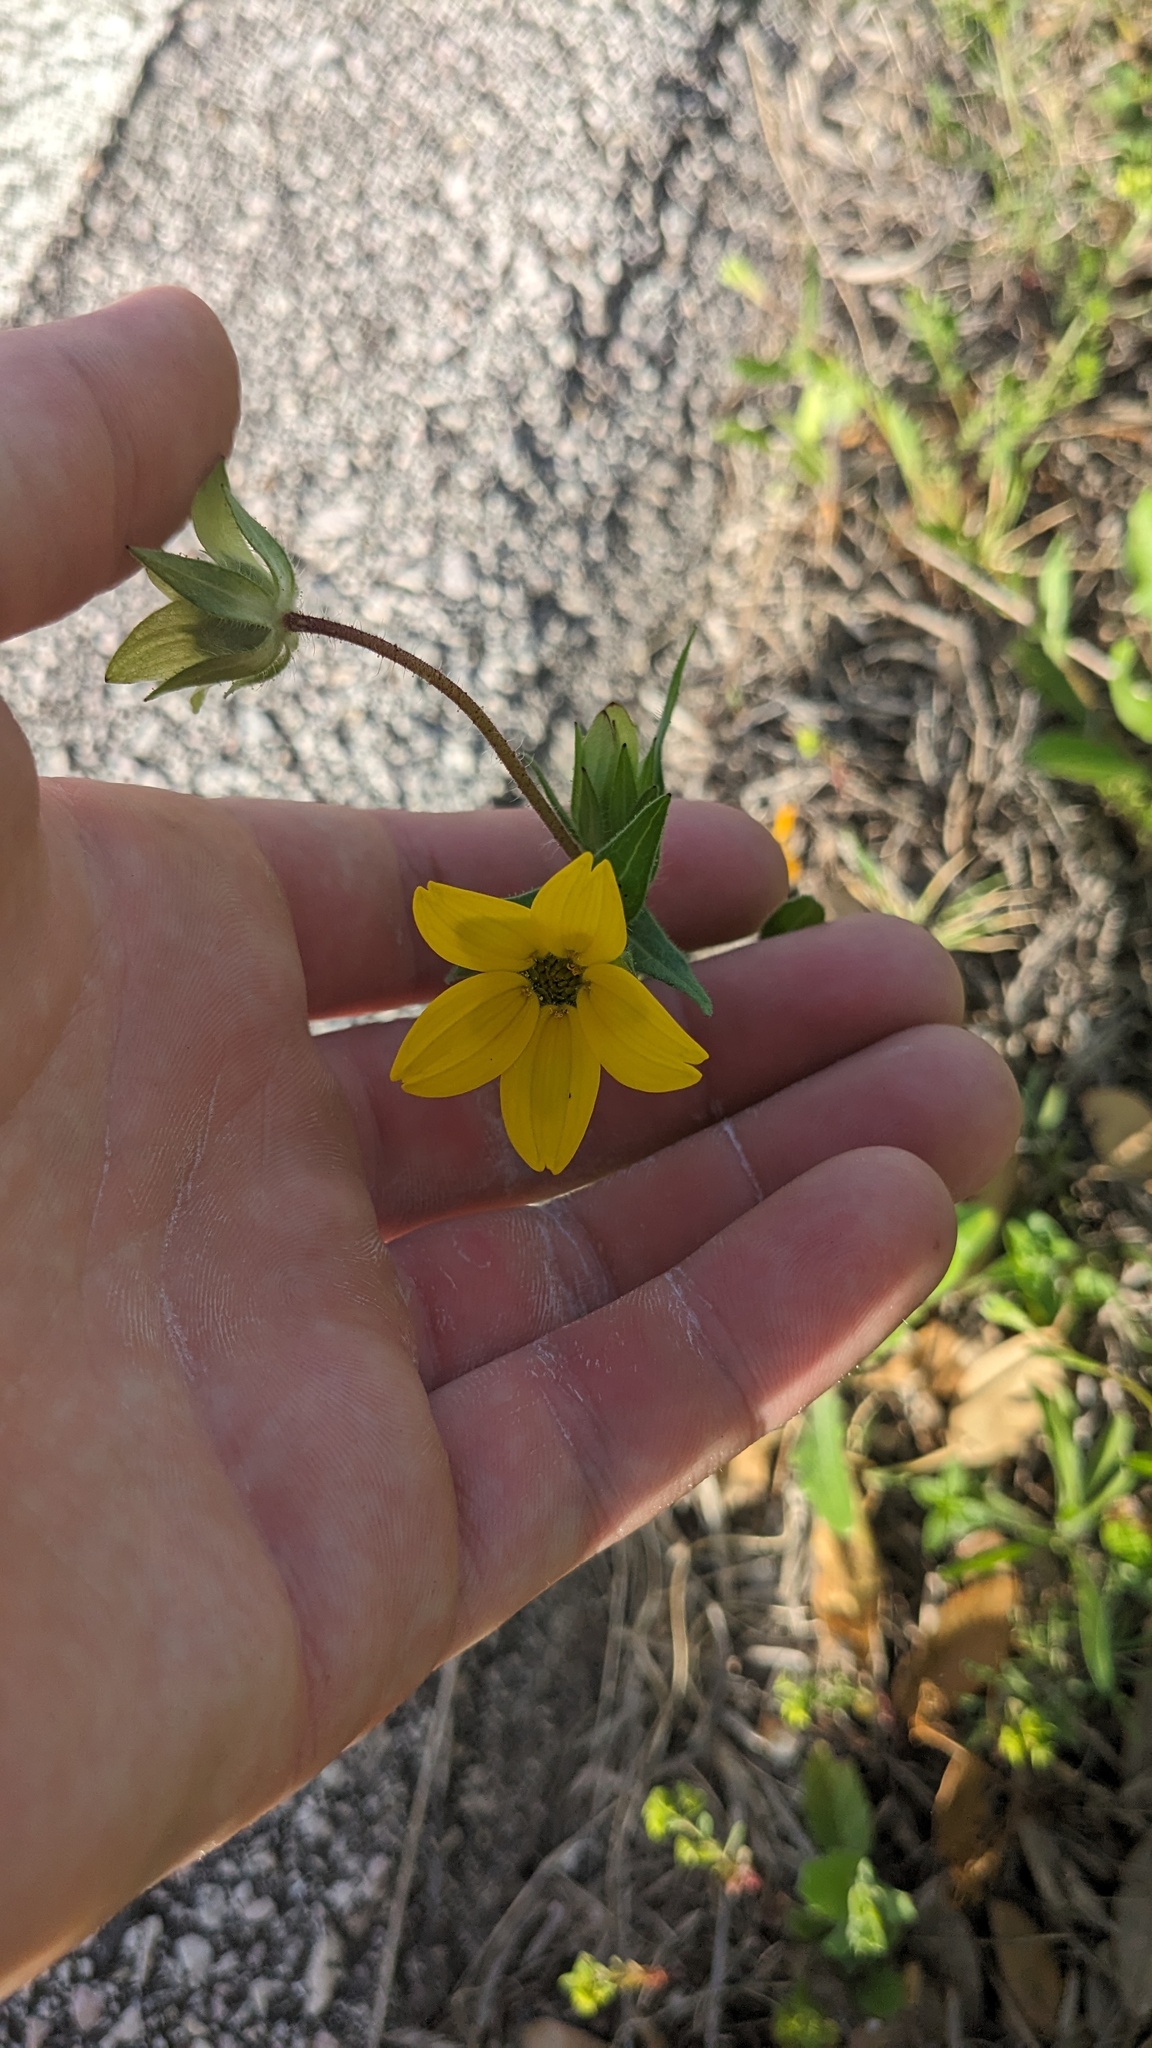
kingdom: Plantae
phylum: Tracheophyta
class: Magnoliopsida
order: Asterales
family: Asteraceae
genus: Lindheimera
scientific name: Lindheimera texana
